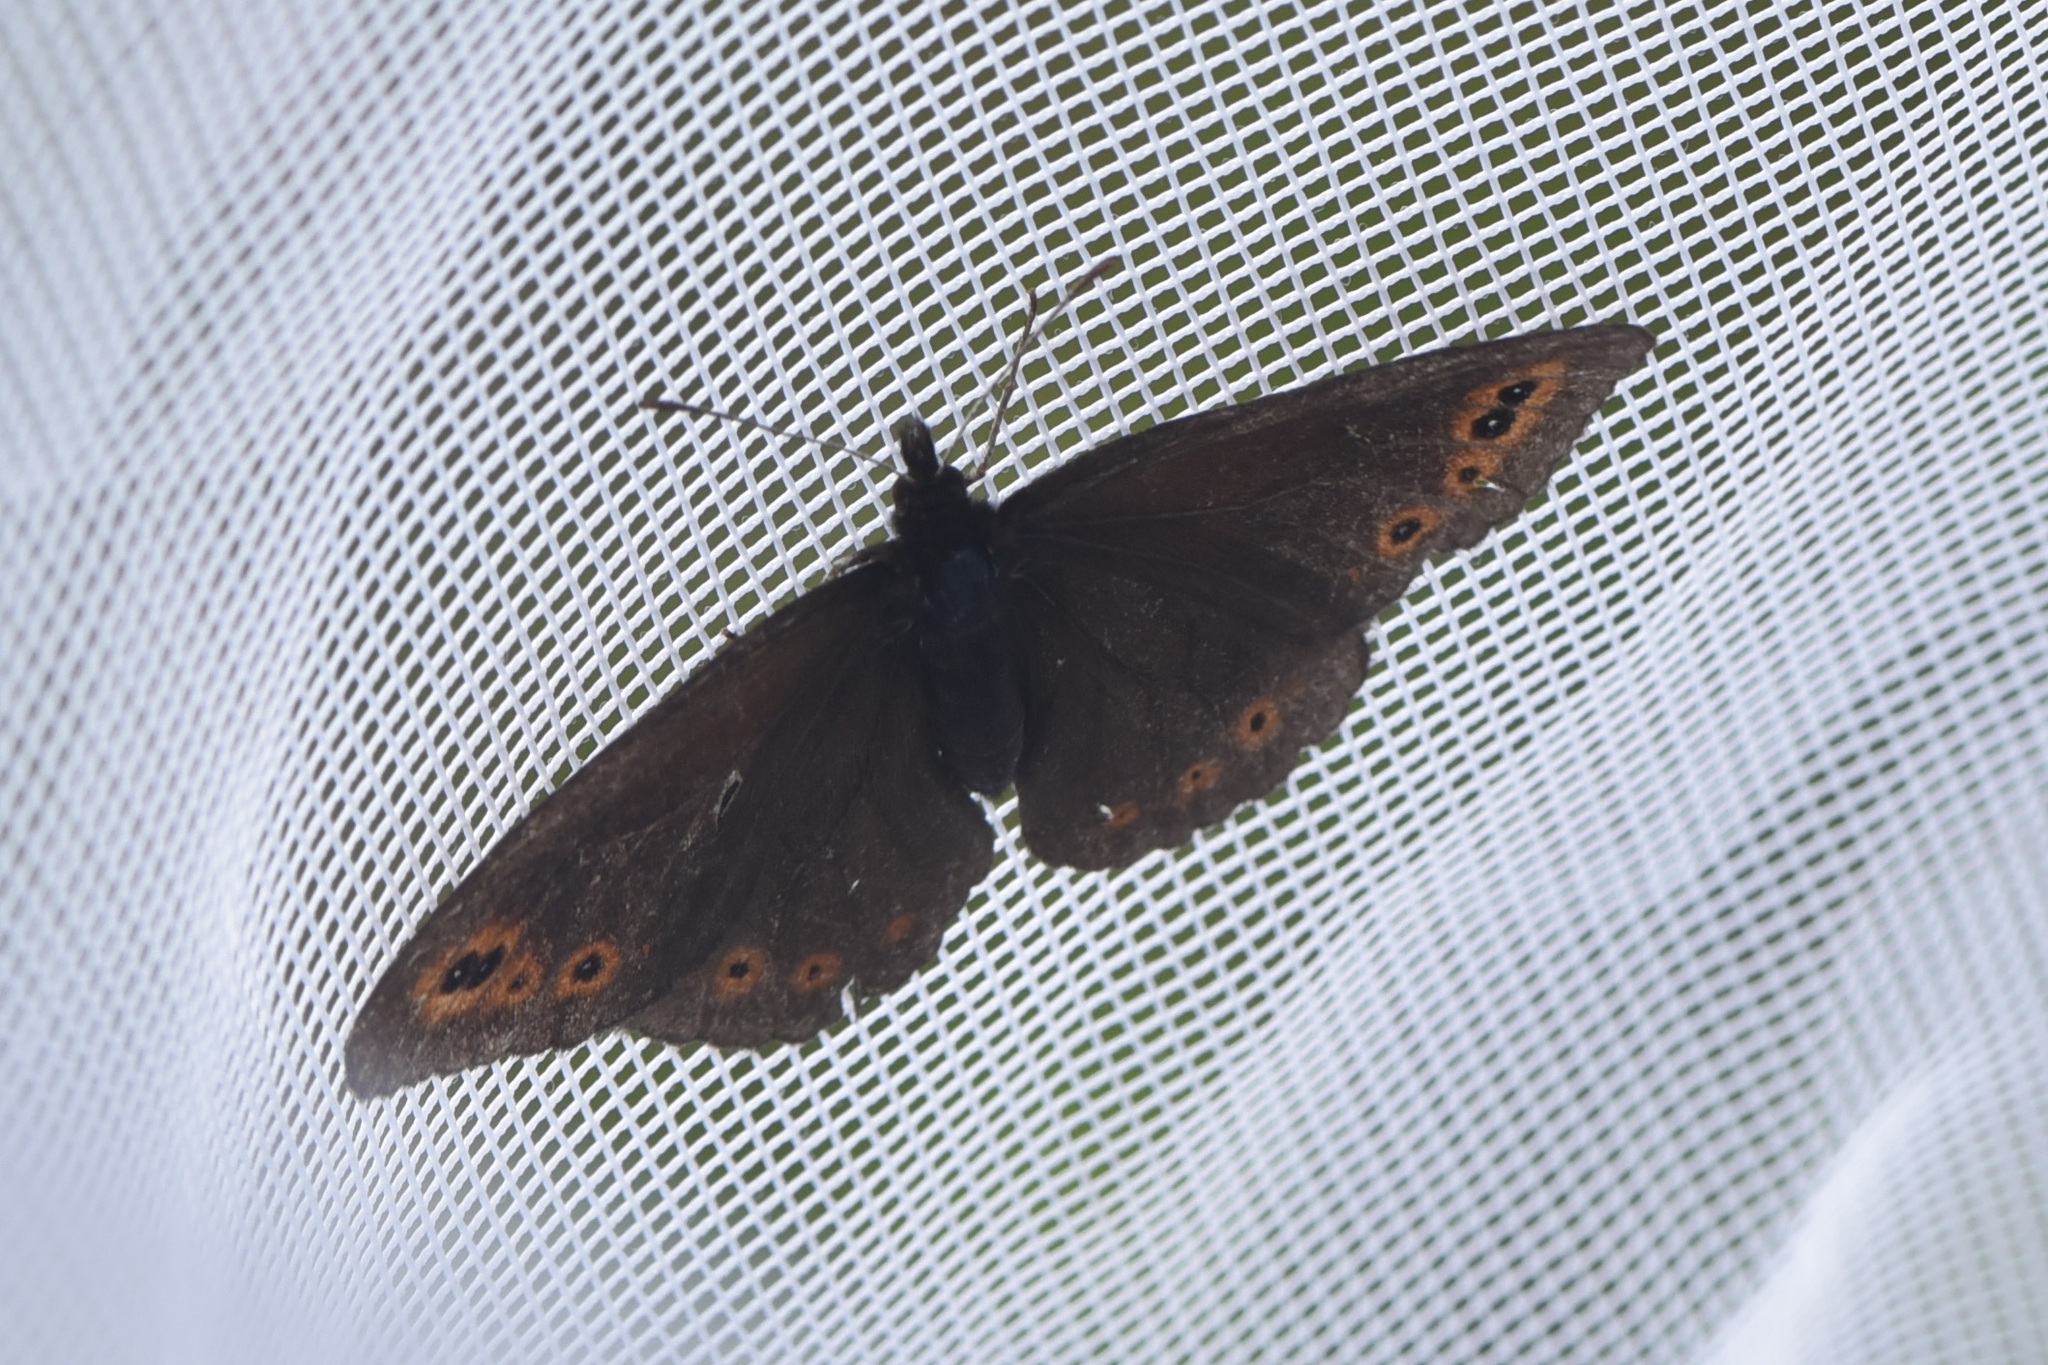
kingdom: Animalia
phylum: Arthropoda
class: Insecta
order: Lepidoptera
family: Nymphalidae
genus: Erebia
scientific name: Erebia epipsodea
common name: Common alpine
